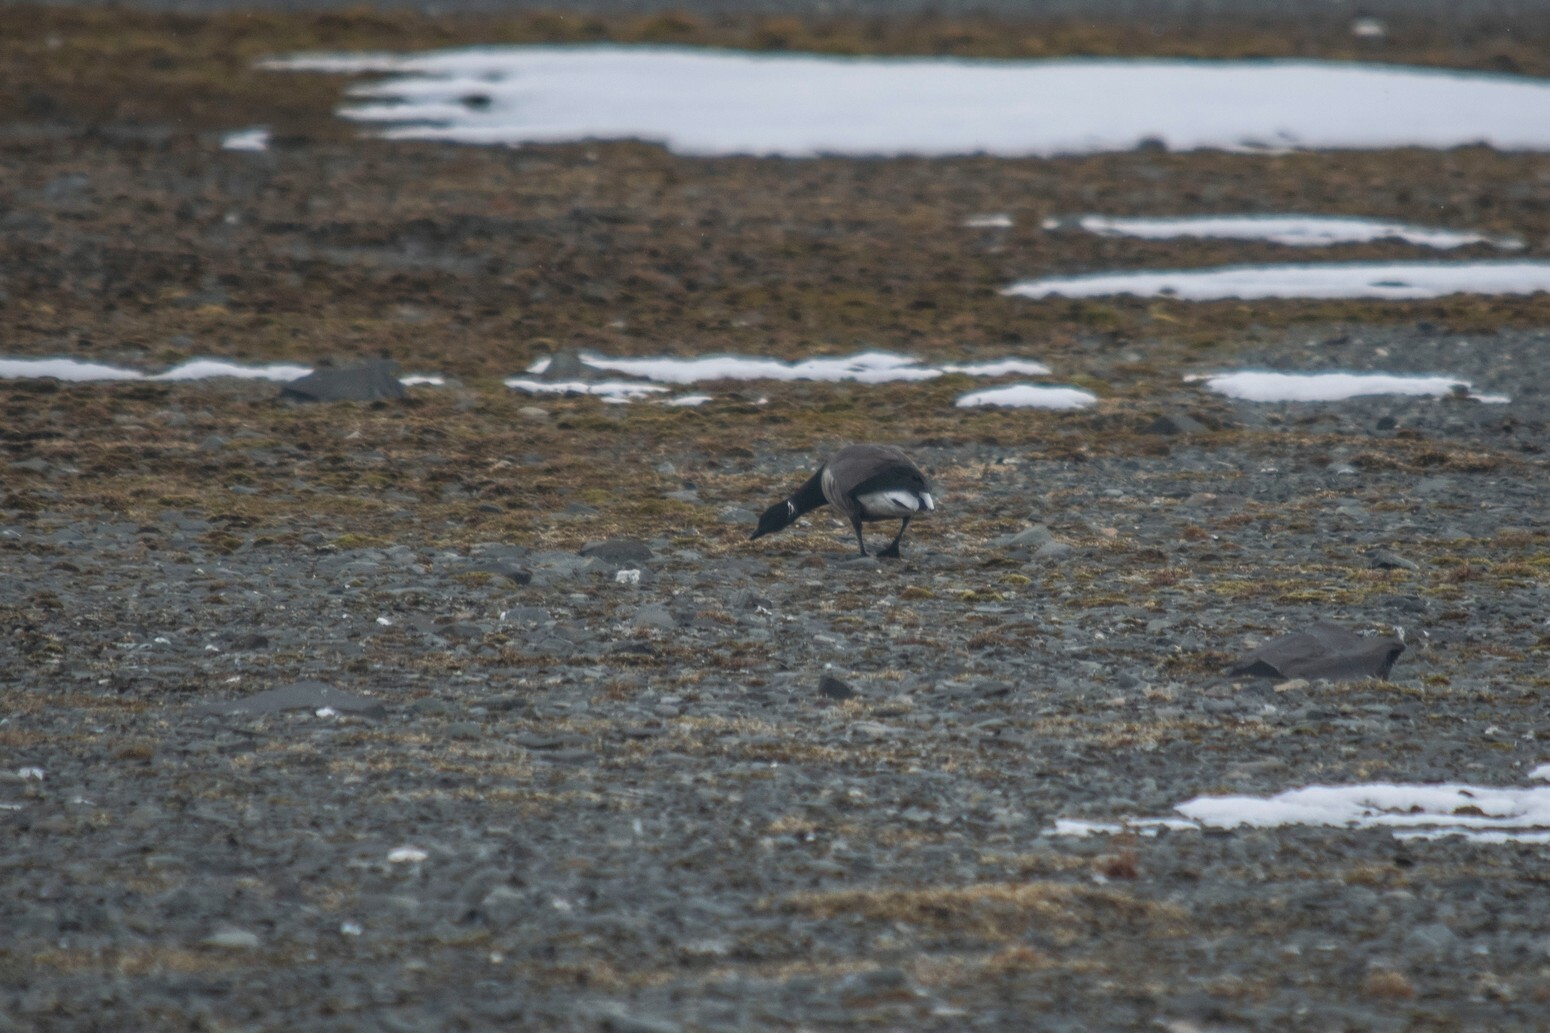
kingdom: Animalia
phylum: Chordata
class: Aves
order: Anseriformes
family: Anatidae
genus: Branta
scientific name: Branta bernicla
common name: Brant goose
